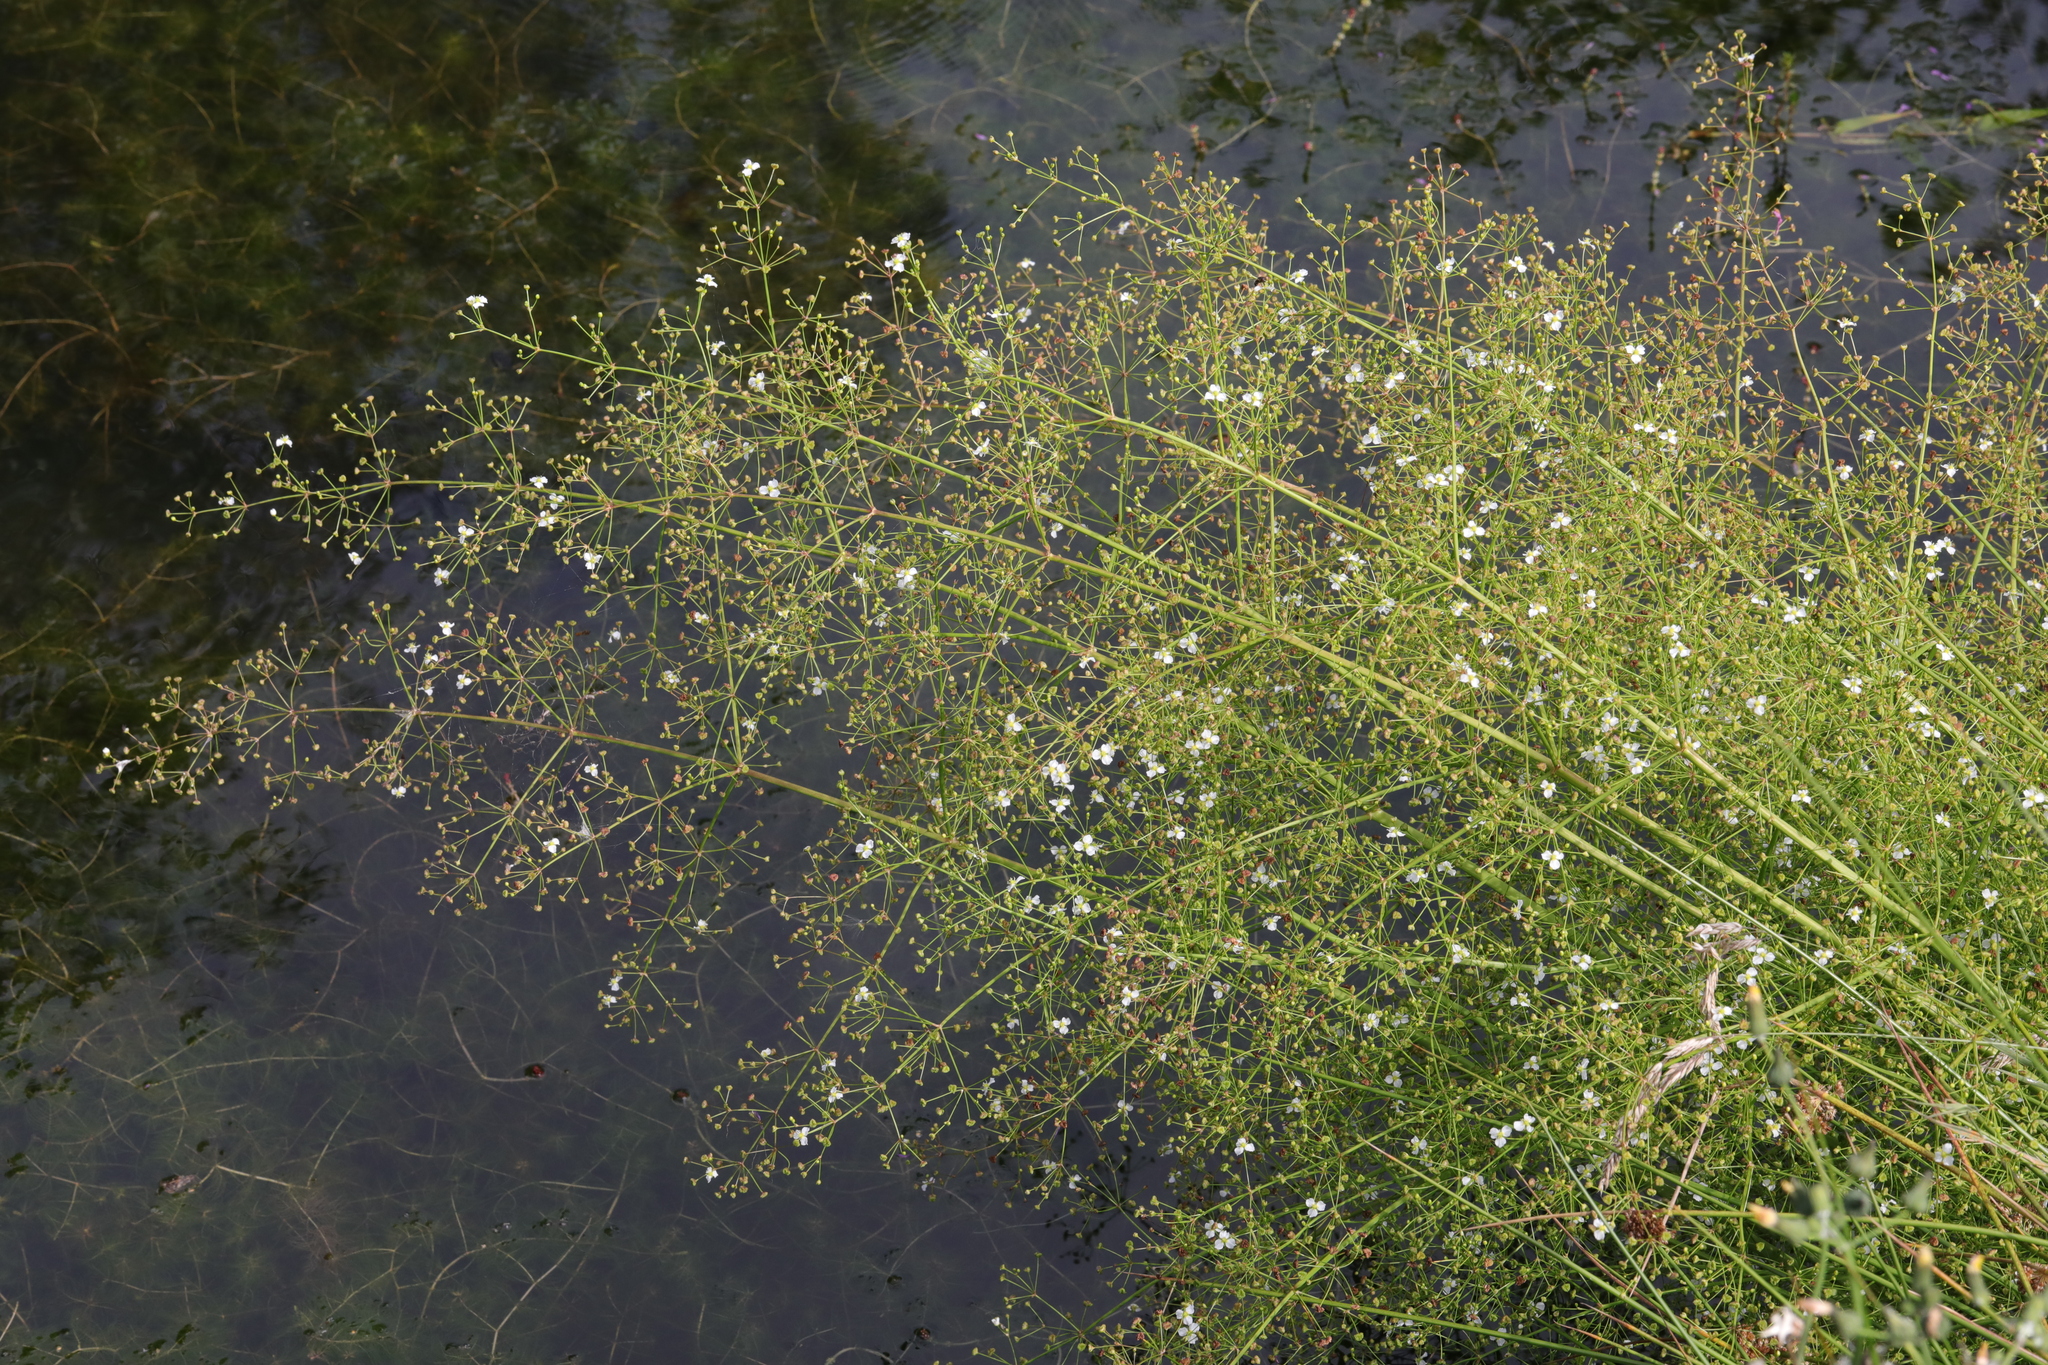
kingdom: Plantae
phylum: Tracheophyta
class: Liliopsida
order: Alismatales
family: Alismataceae
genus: Alisma
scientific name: Alisma plantago-aquatica
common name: Water-plantain
